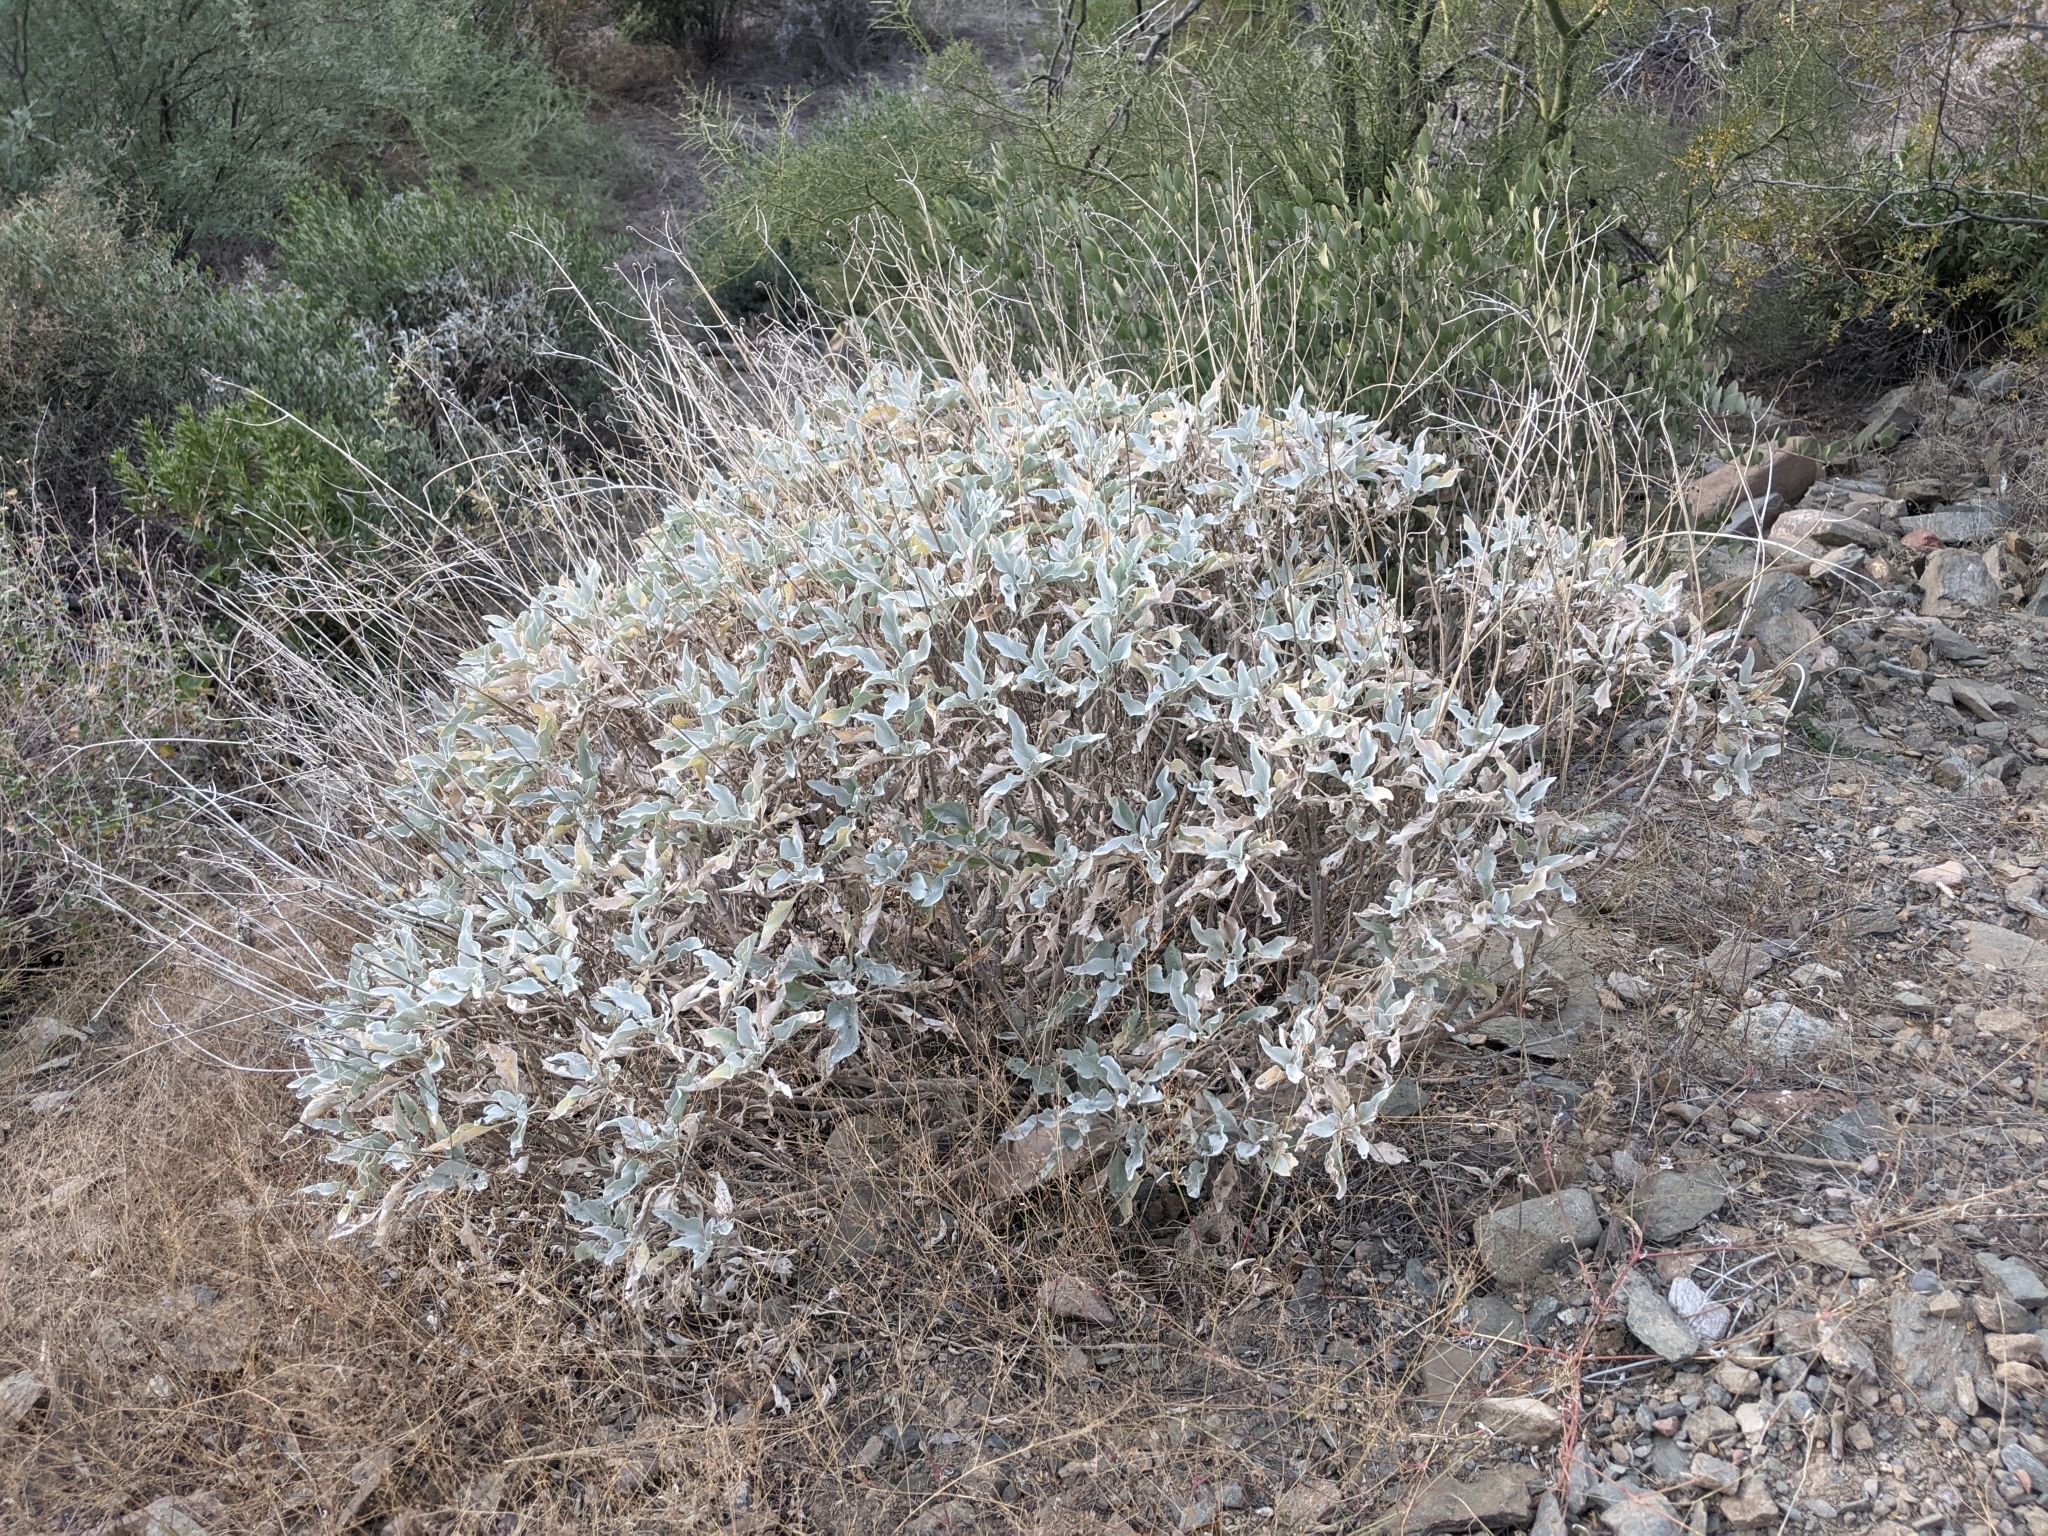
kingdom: Plantae
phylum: Tracheophyta
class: Magnoliopsida
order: Asterales
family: Asteraceae
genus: Encelia
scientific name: Encelia farinosa
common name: Brittlebush
